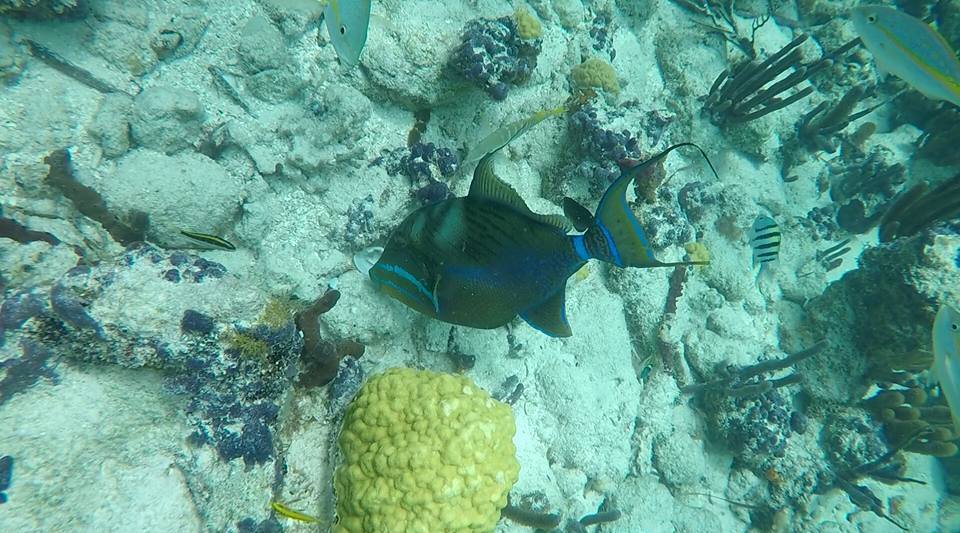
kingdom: Animalia
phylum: Chordata
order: Tetraodontiformes
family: Balistidae
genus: Balistes
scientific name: Balistes vetula
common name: Queen triggerfish
